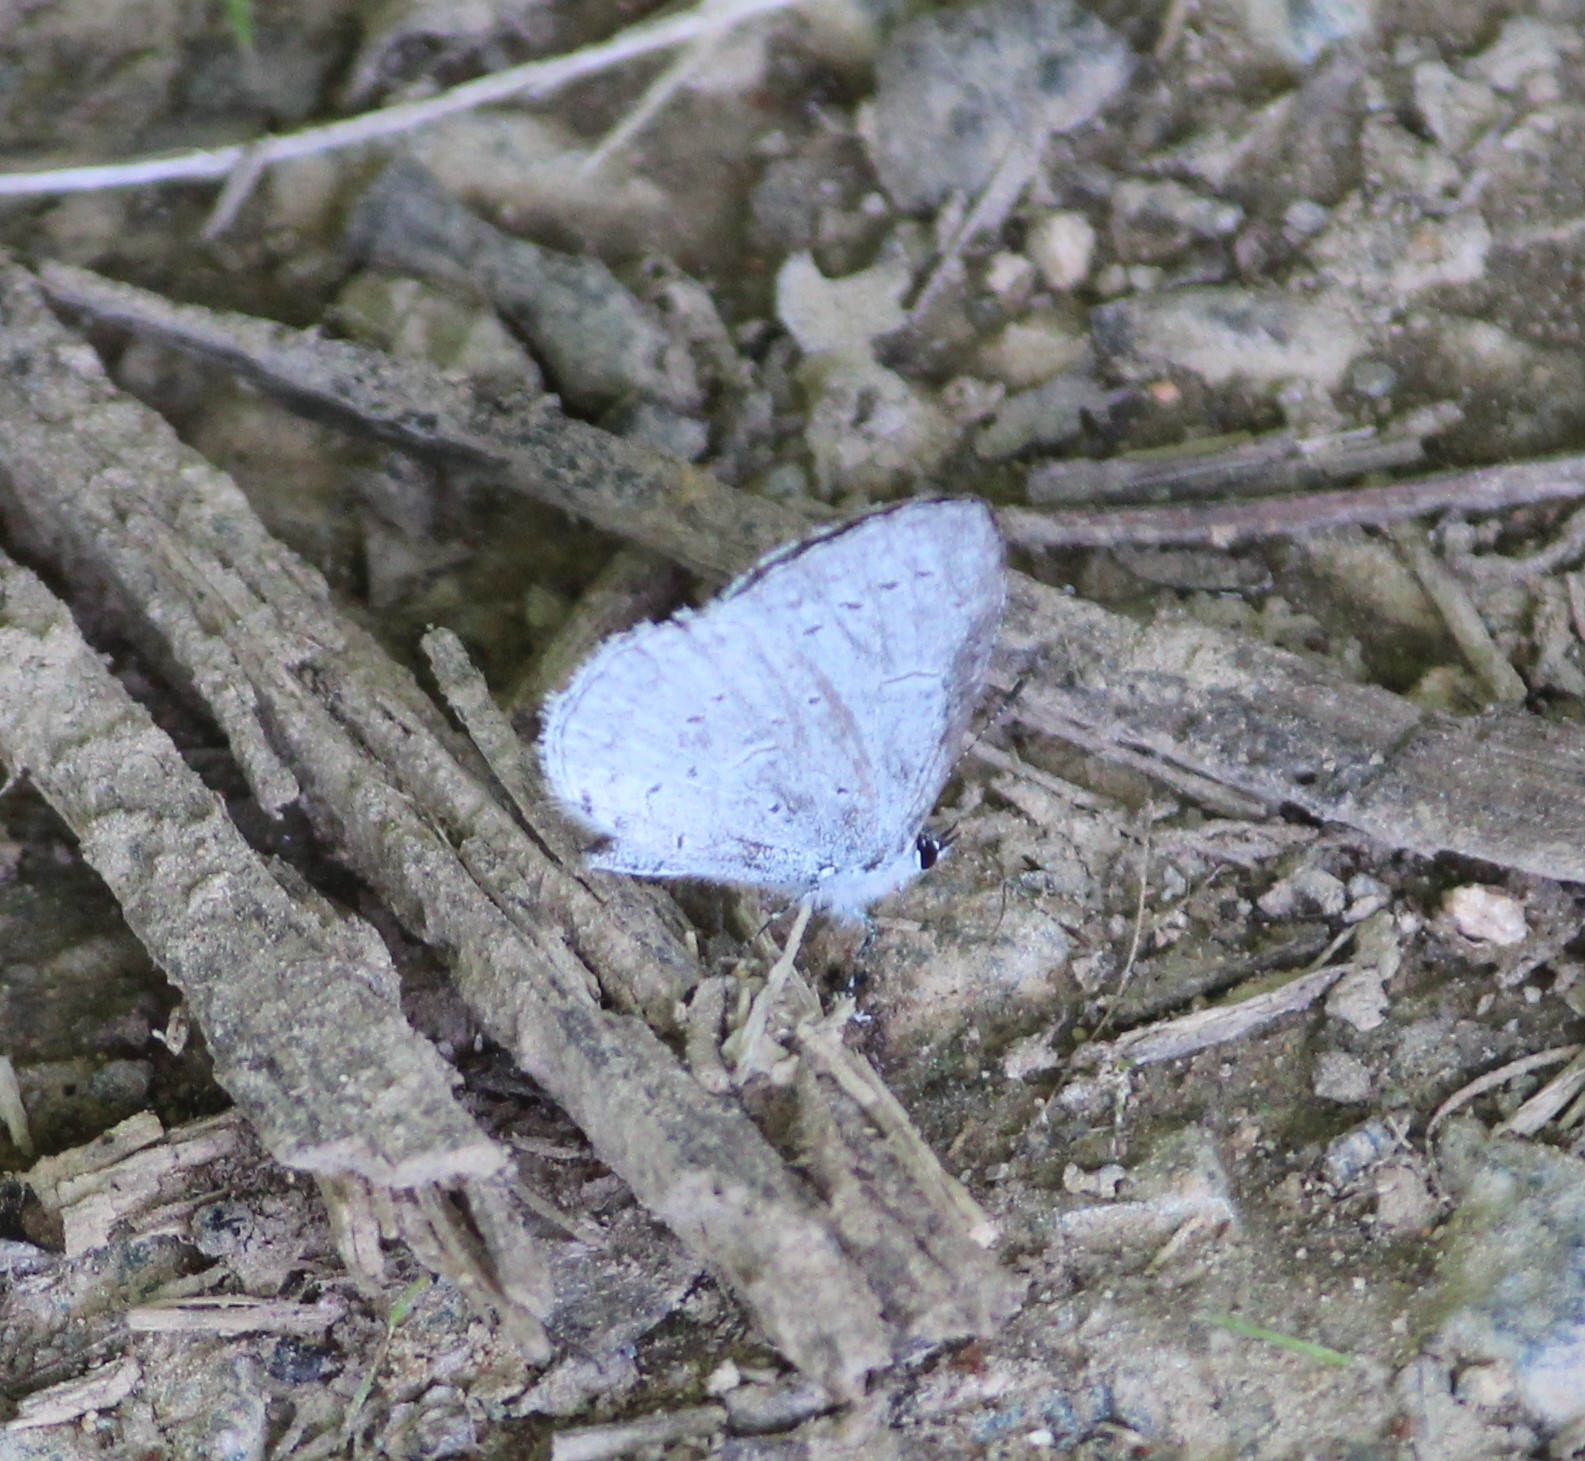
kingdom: Animalia
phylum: Arthropoda
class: Insecta
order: Lepidoptera
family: Lycaenidae
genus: Cyaniris
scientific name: Cyaniris neglecta
